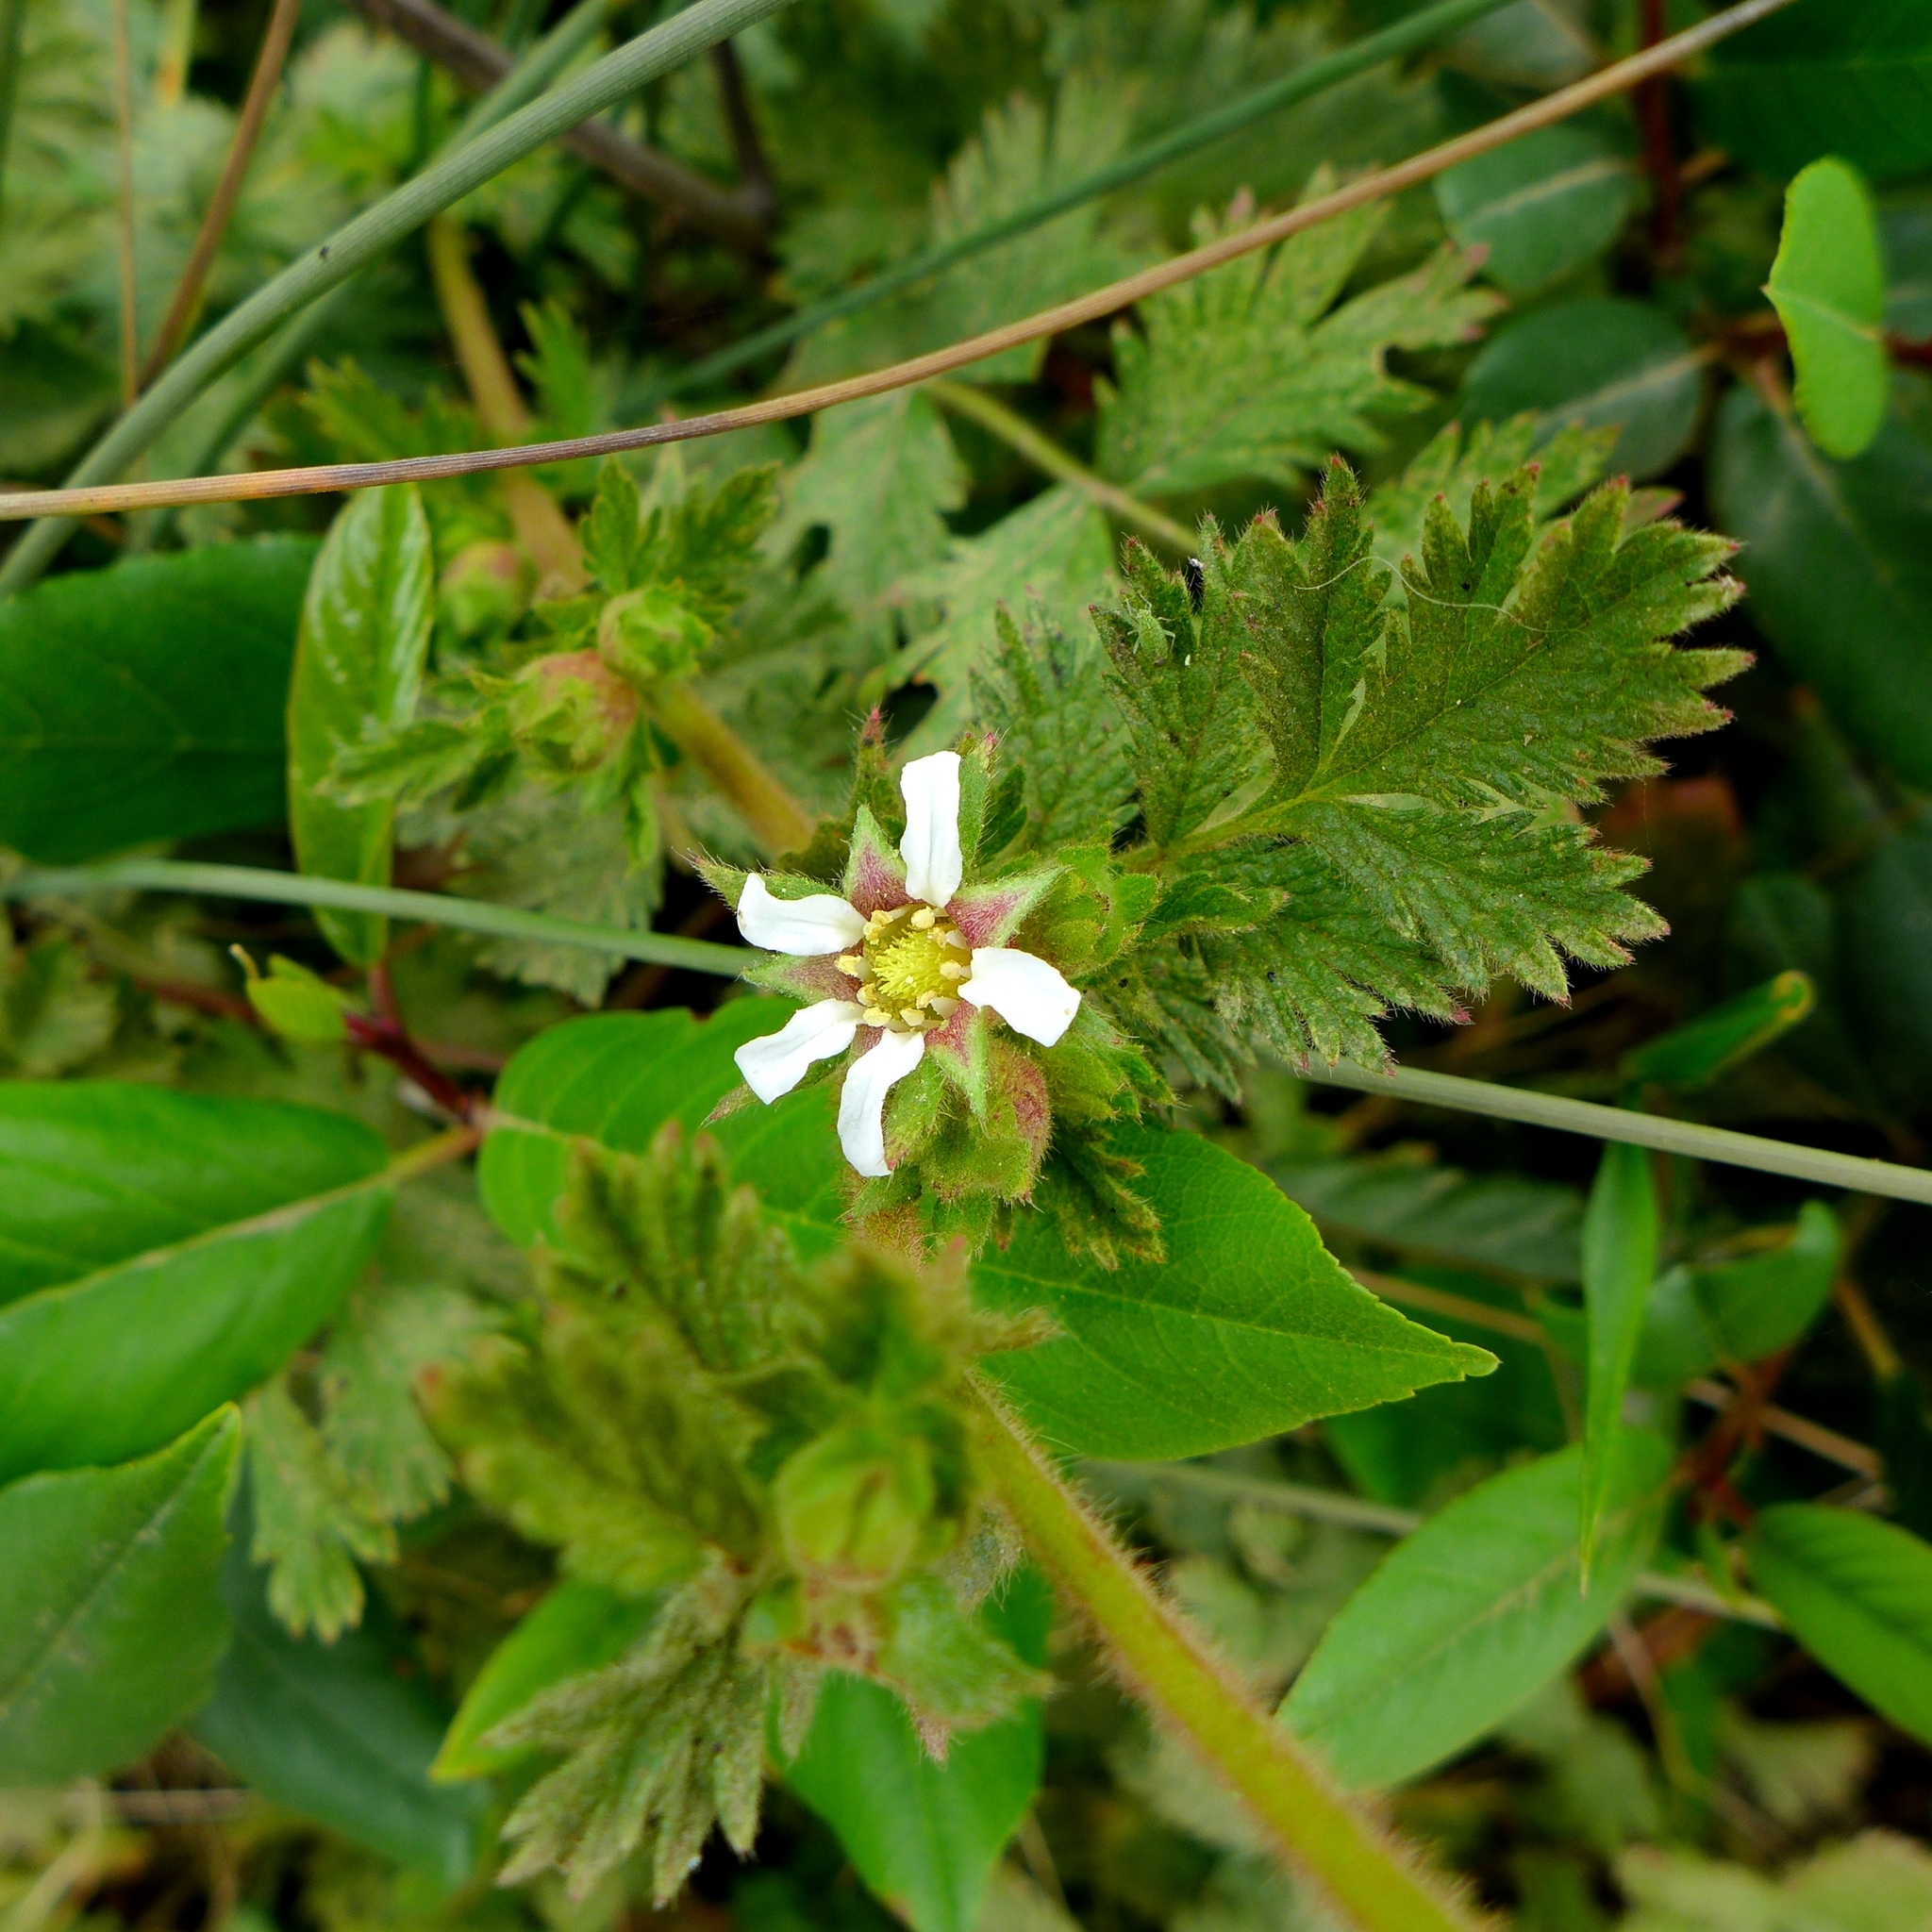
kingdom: Plantae
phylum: Tracheophyta
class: Magnoliopsida
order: Rosales
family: Rosaceae
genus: Potentilla
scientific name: Potentilla californica
